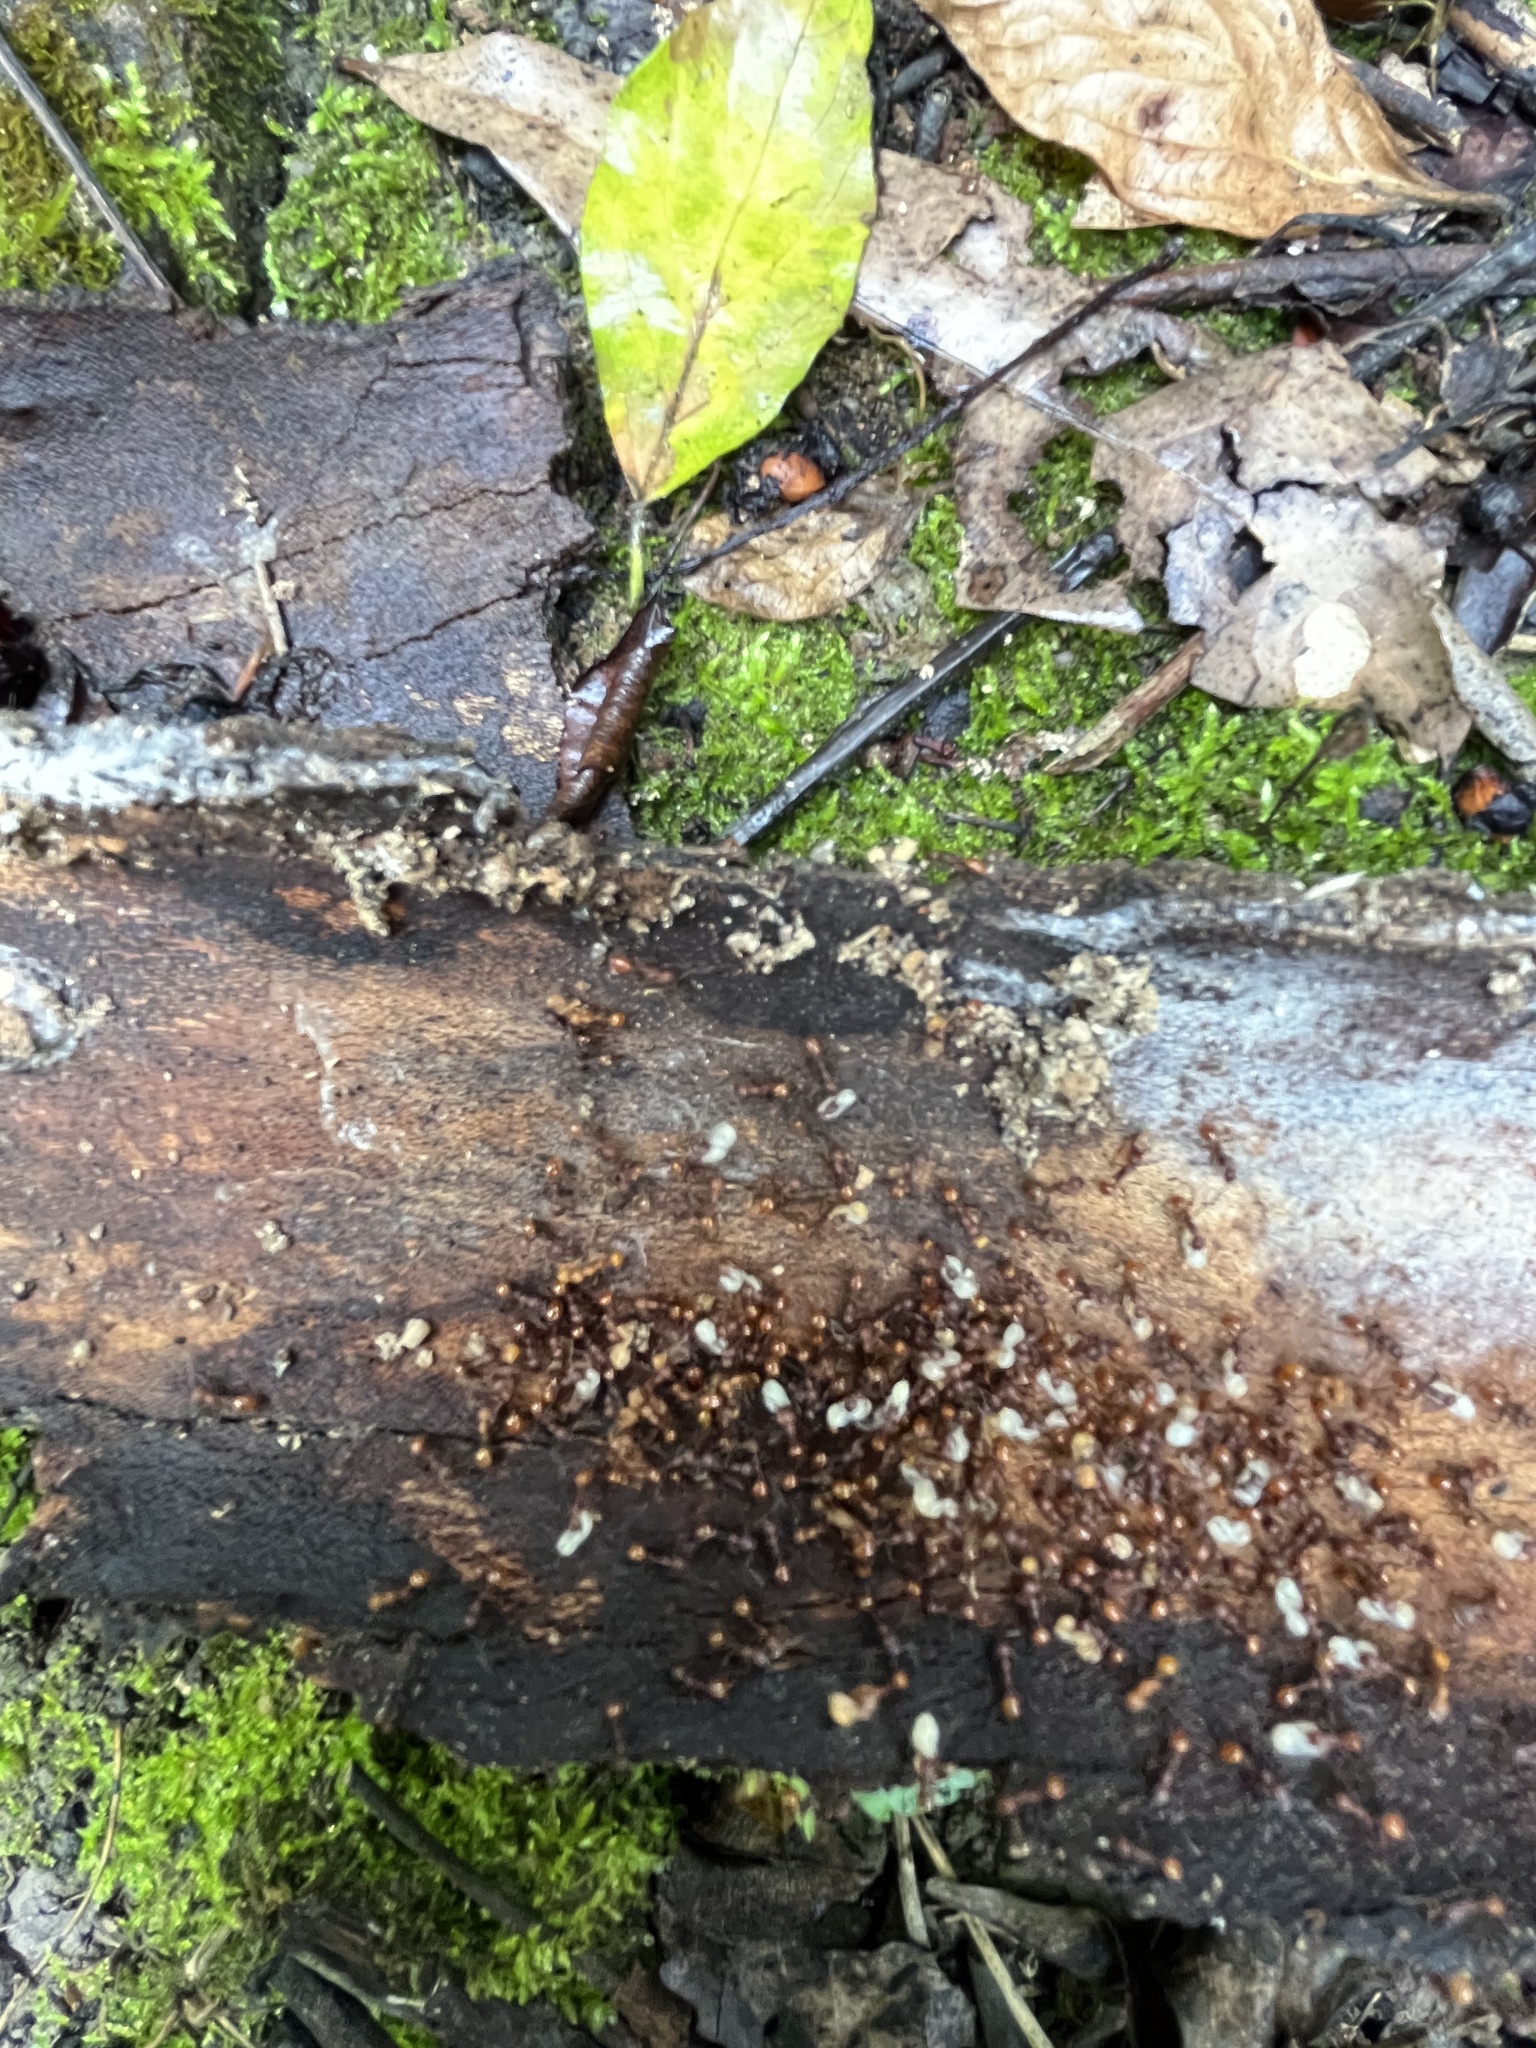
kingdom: Animalia
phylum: Arthropoda
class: Insecta
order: Hymenoptera
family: Formicidae
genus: Aphaenogaster
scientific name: Aphaenogaster tennesseensis
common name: Tennessee thread-waisted ant
